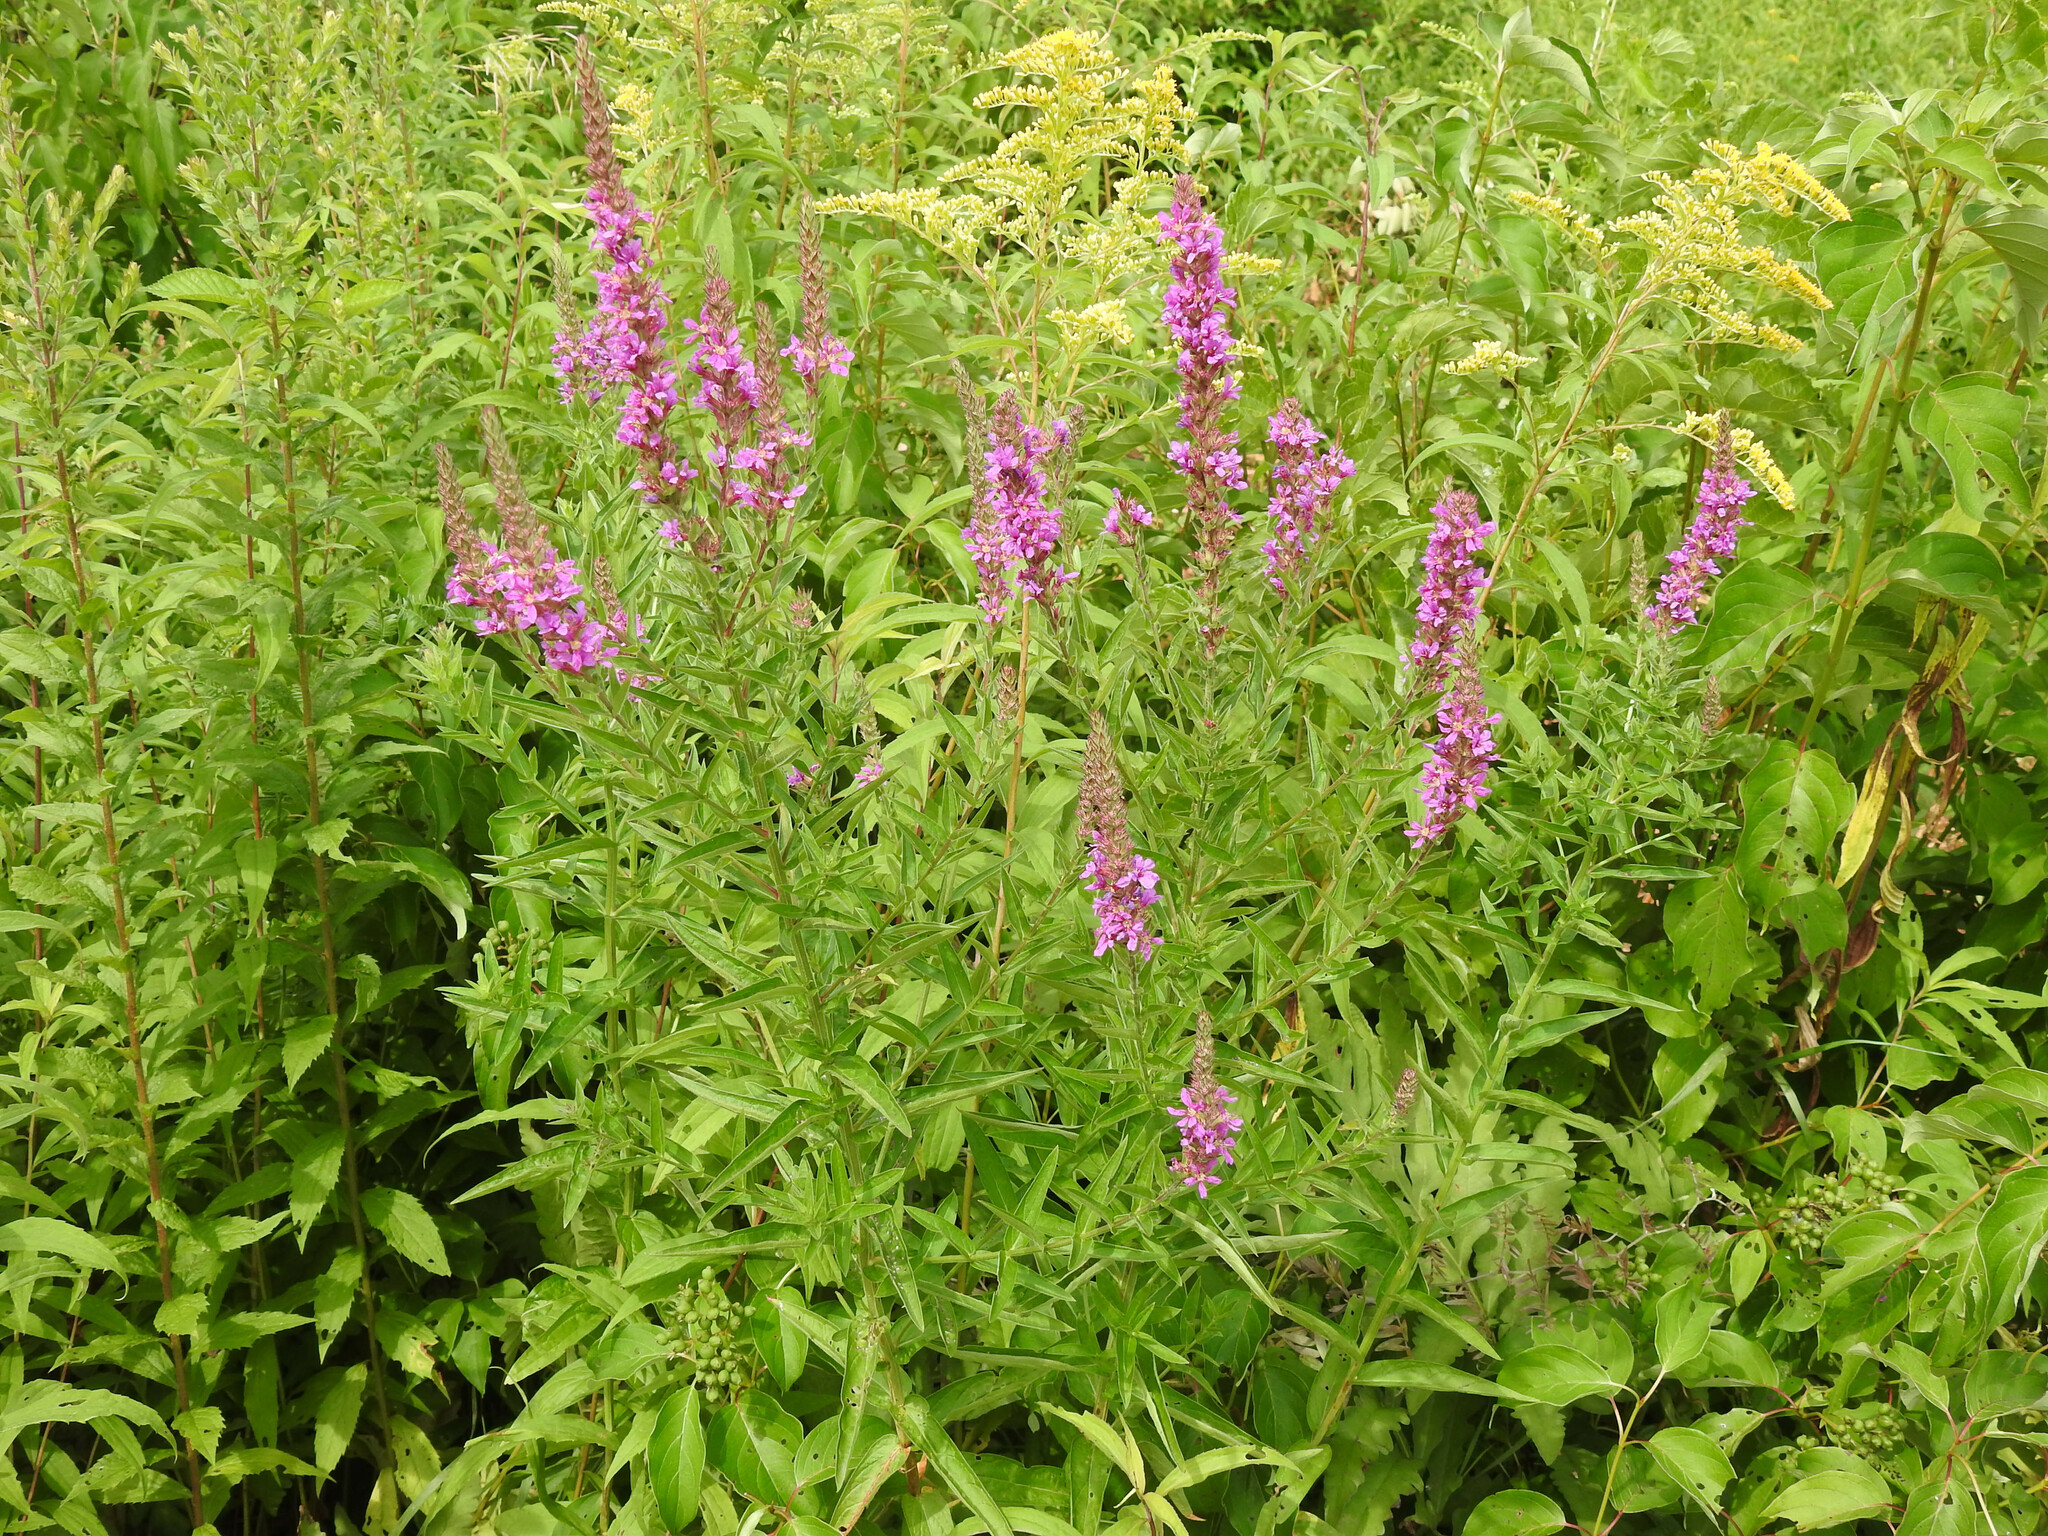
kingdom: Plantae
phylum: Tracheophyta
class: Magnoliopsida
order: Myrtales
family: Lythraceae
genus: Lythrum
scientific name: Lythrum salicaria
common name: Purple loosestrife
